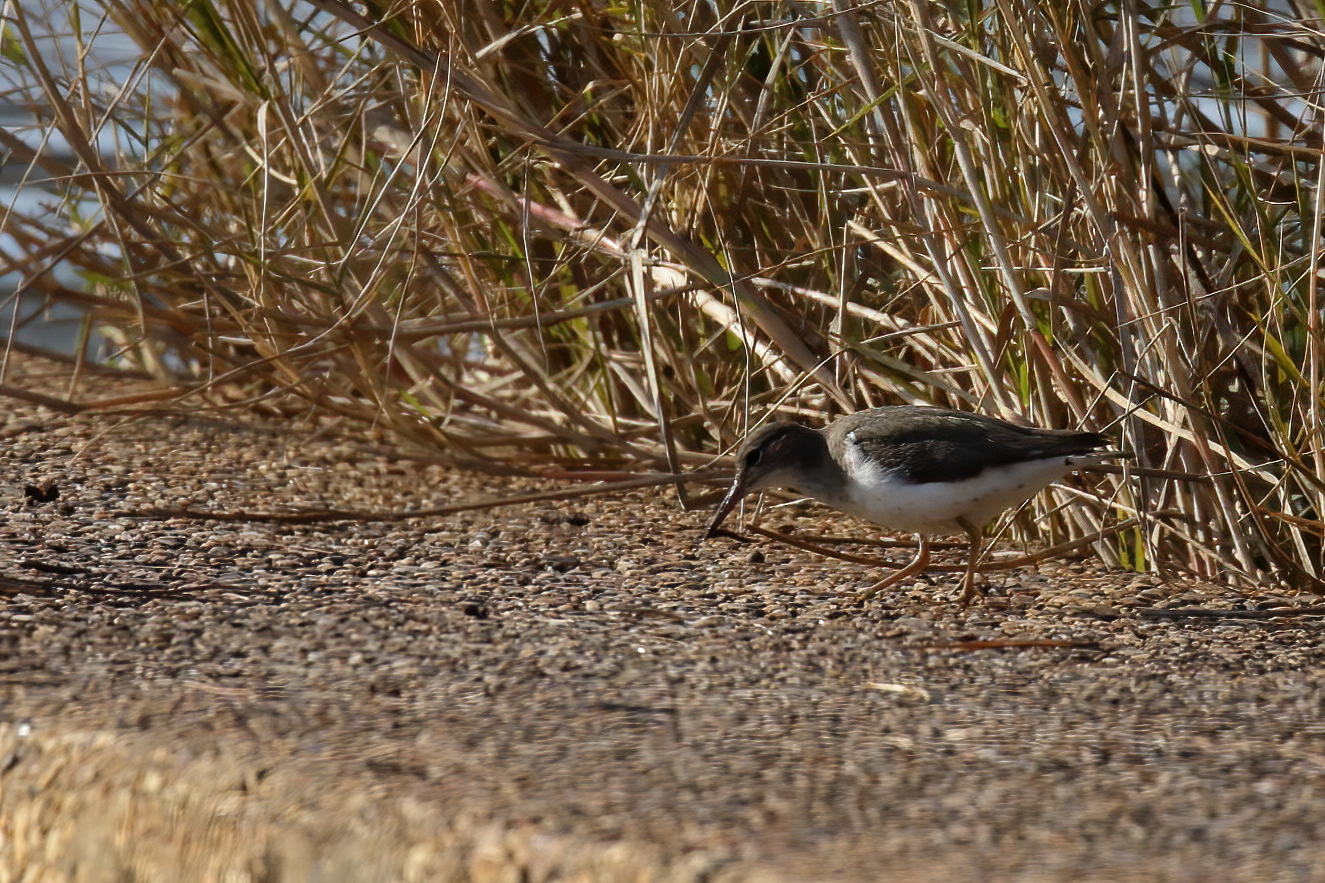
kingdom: Animalia
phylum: Chordata
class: Aves
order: Charadriiformes
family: Scolopacidae
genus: Actitis
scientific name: Actitis macularius
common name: Spotted sandpiper
